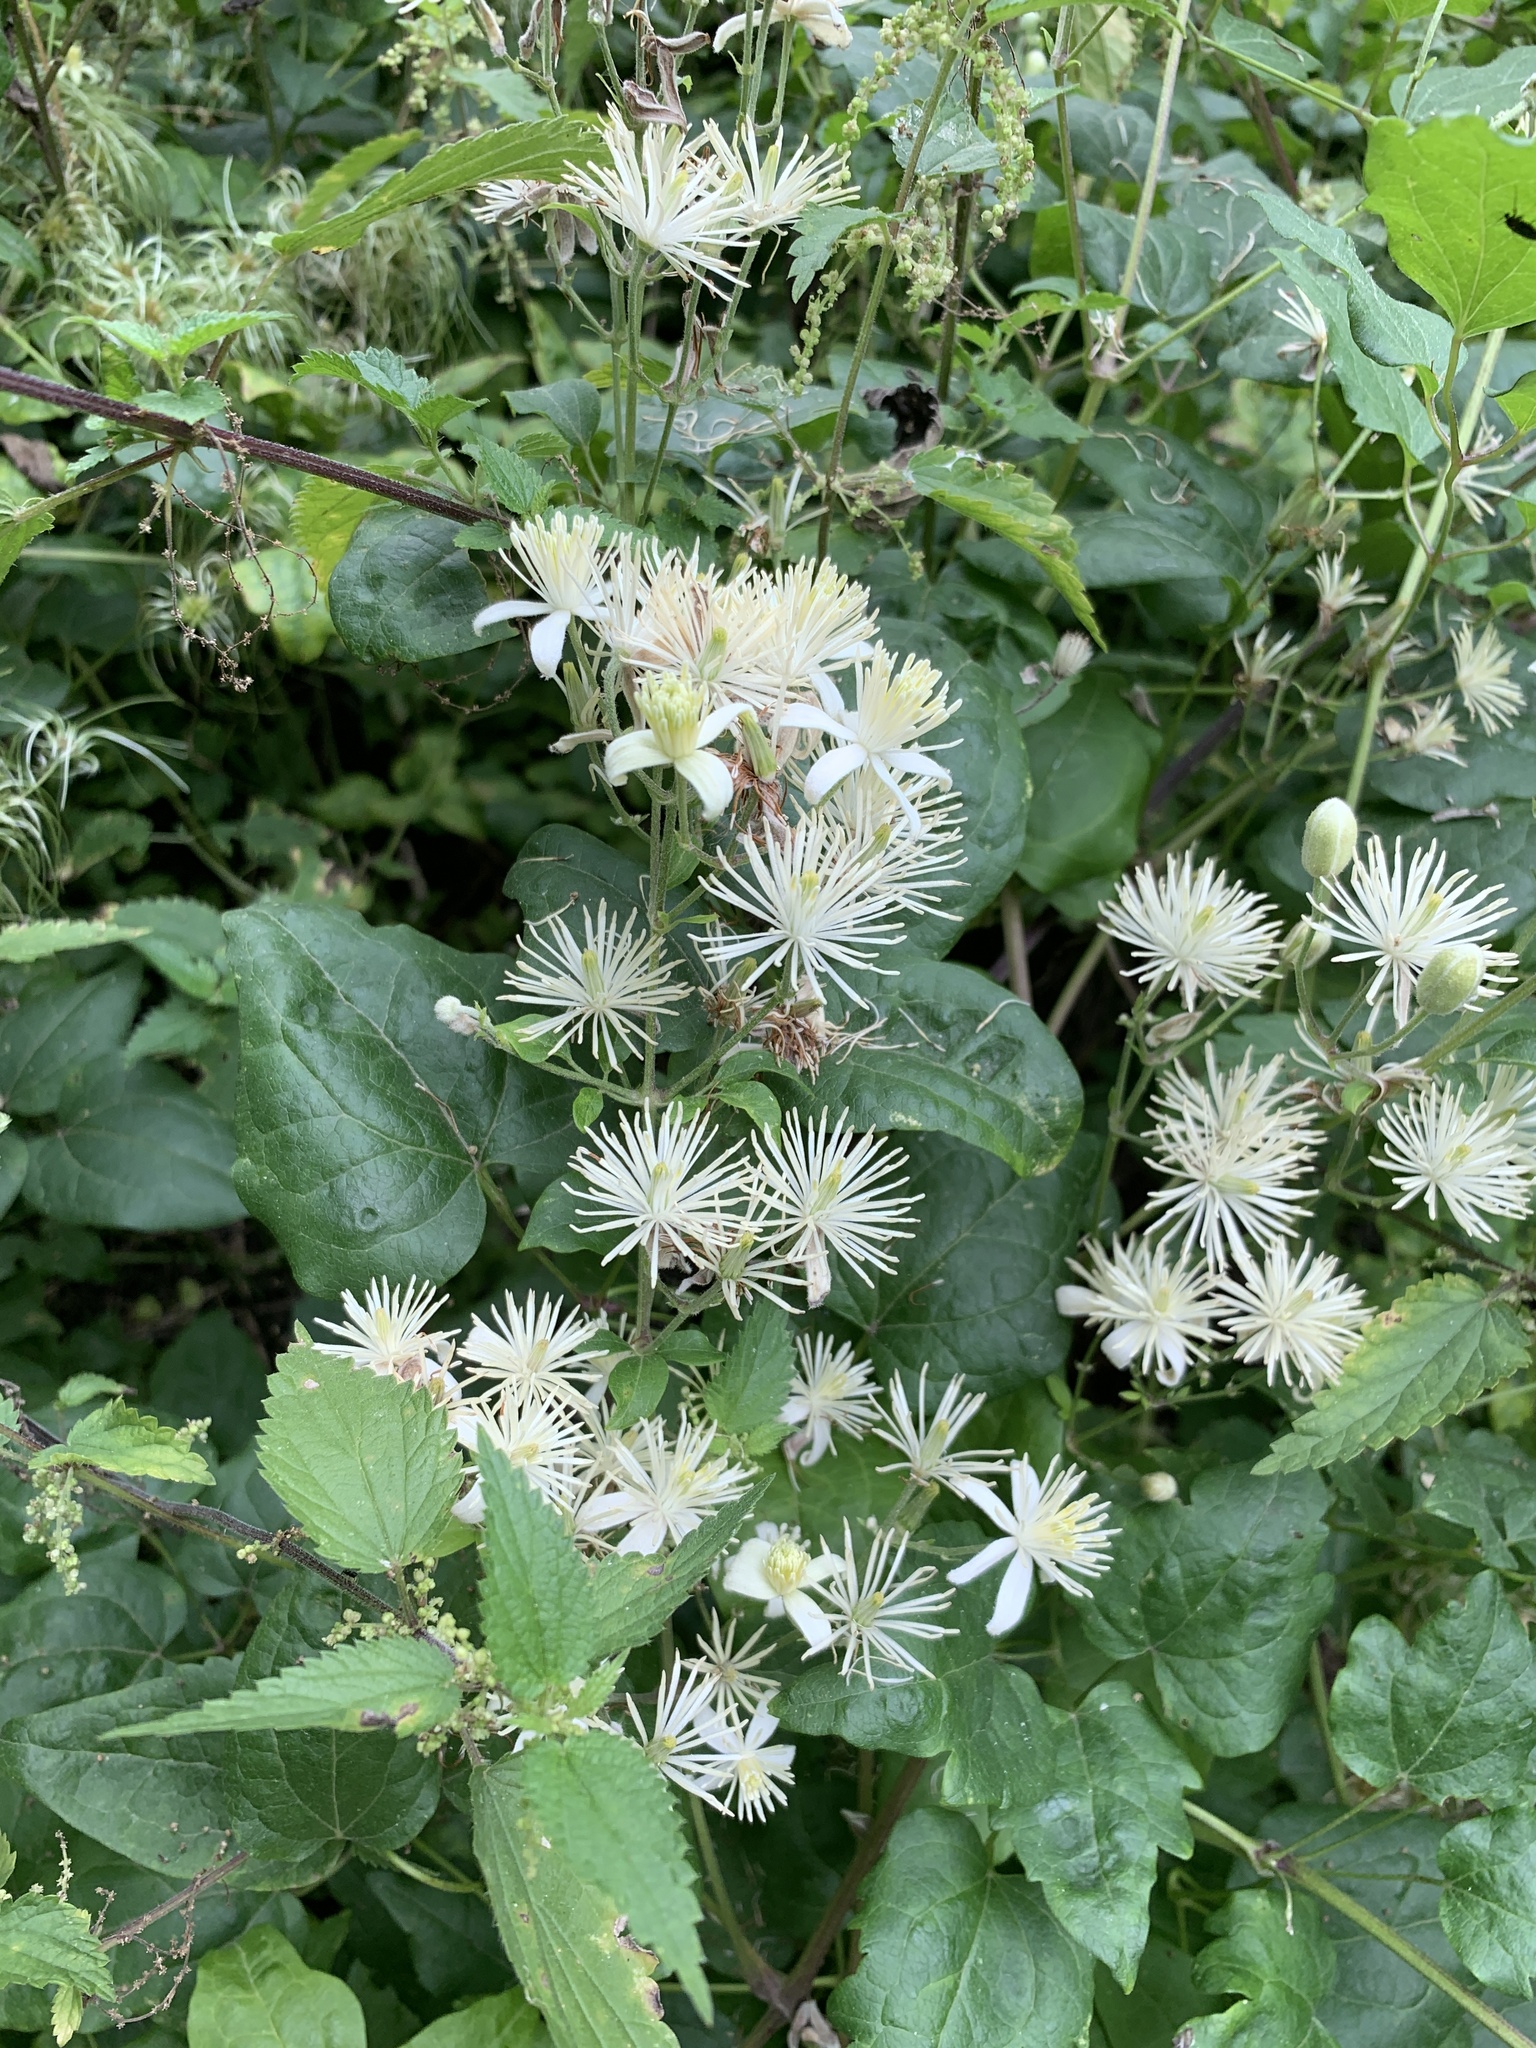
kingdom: Plantae
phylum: Tracheophyta
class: Magnoliopsida
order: Ranunculales
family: Ranunculaceae
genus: Clematis
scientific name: Clematis vitalba
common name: Evergreen clematis
